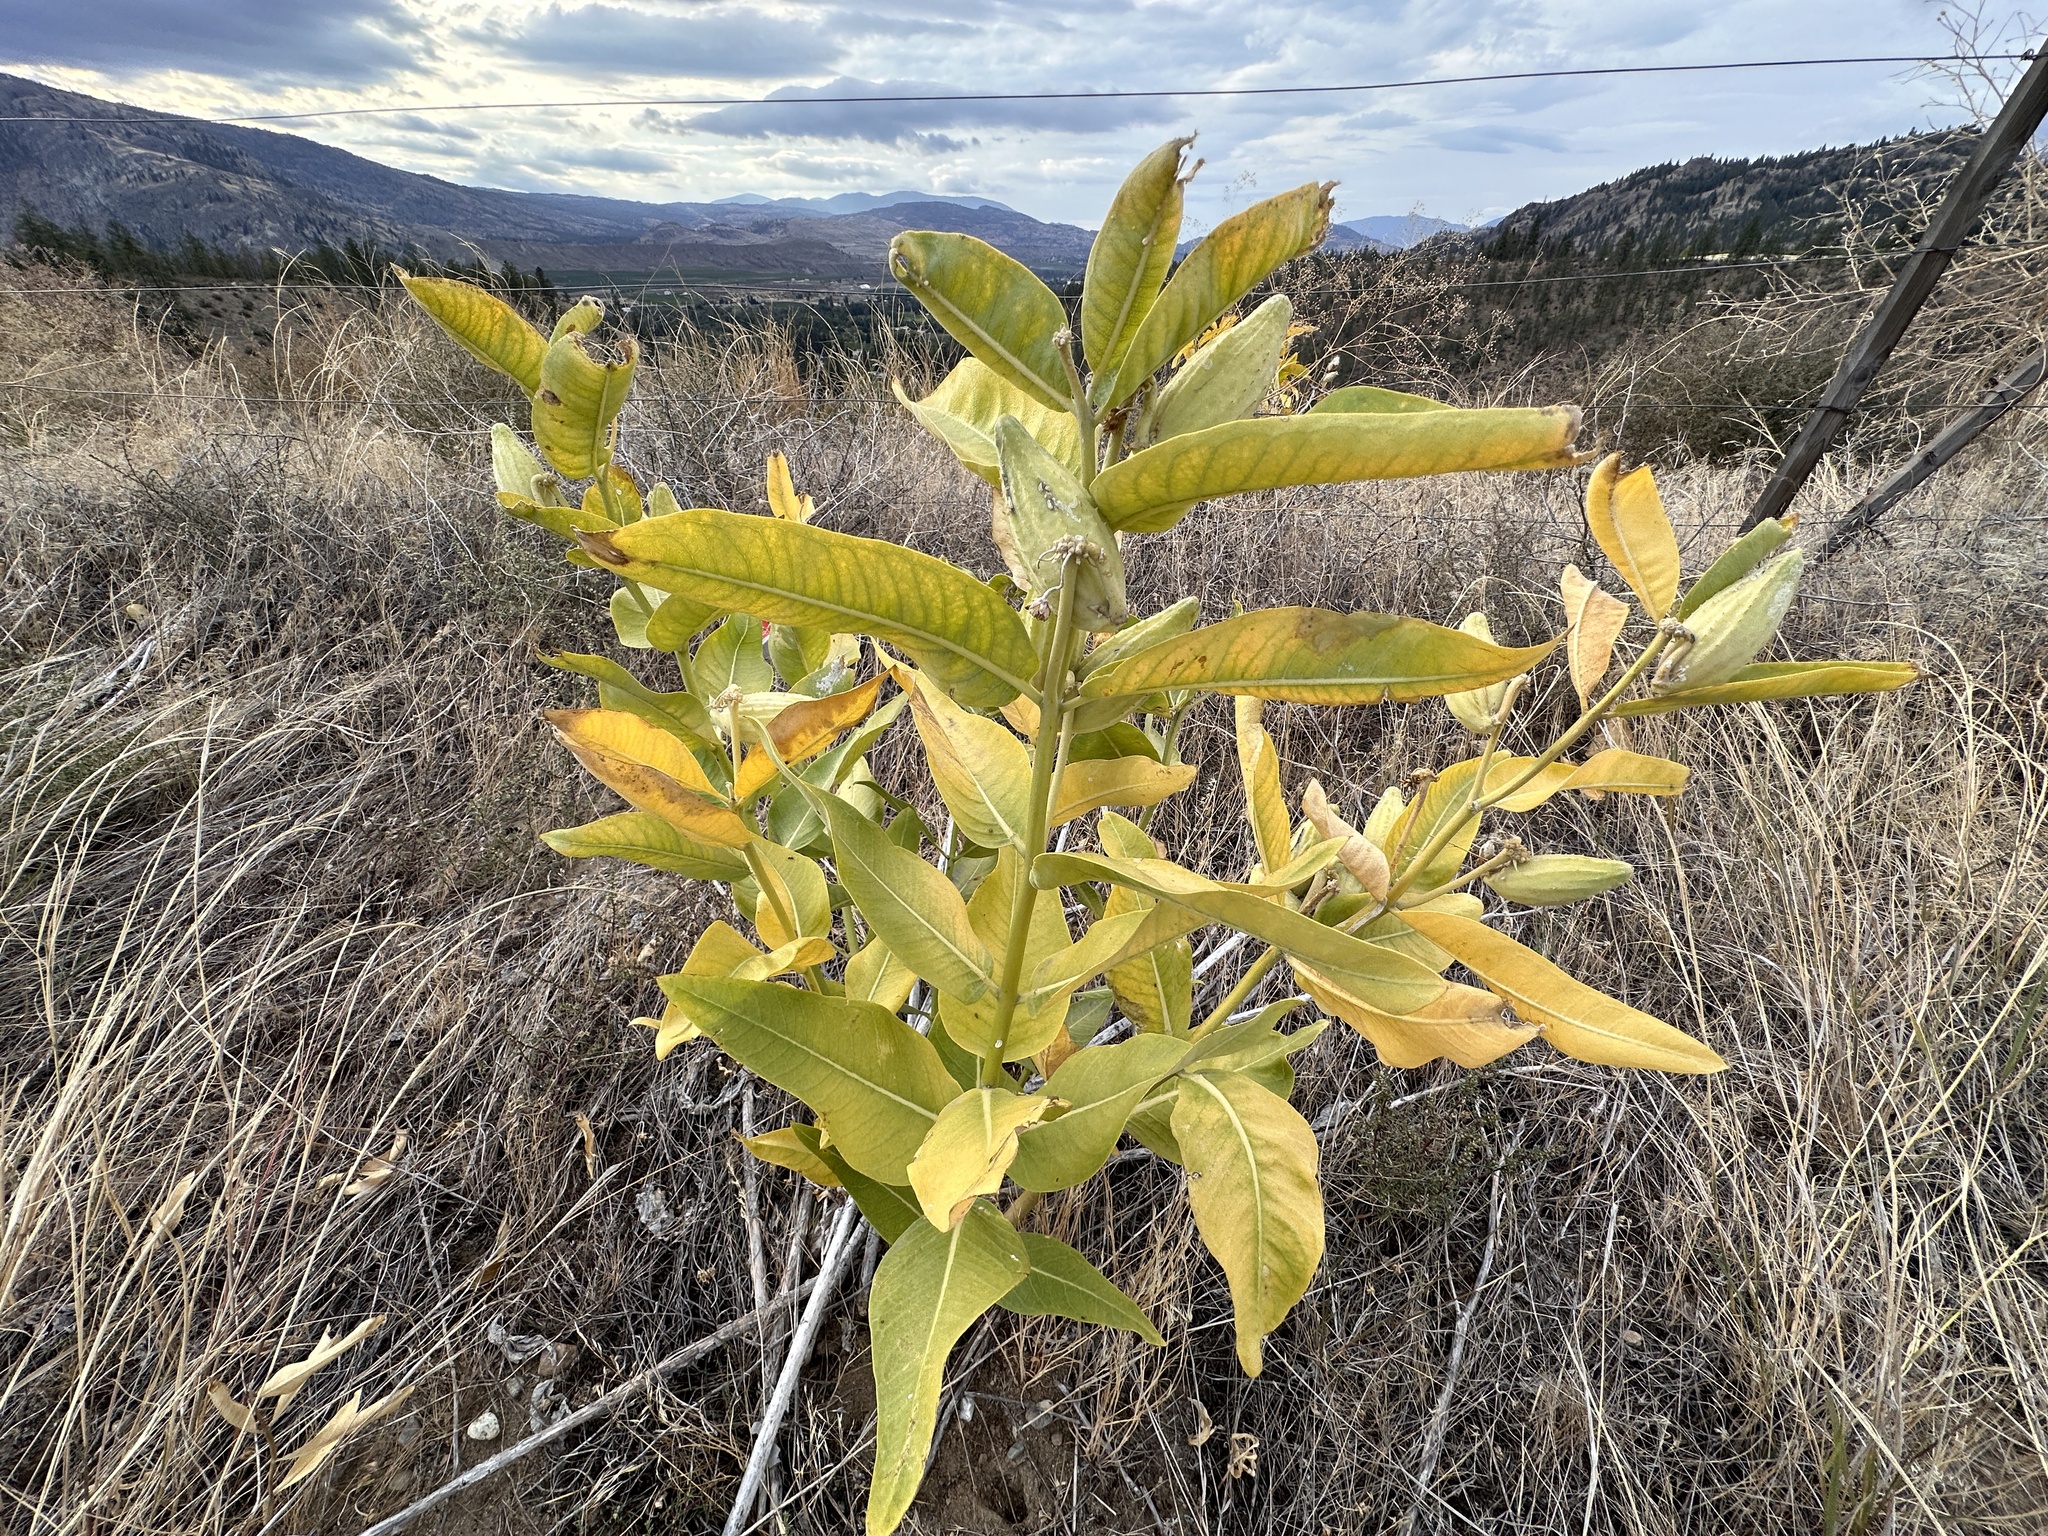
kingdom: Plantae
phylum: Tracheophyta
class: Magnoliopsida
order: Gentianales
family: Apocynaceae
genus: Asclepias
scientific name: Asclepias speciosa
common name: Showy milkweed
